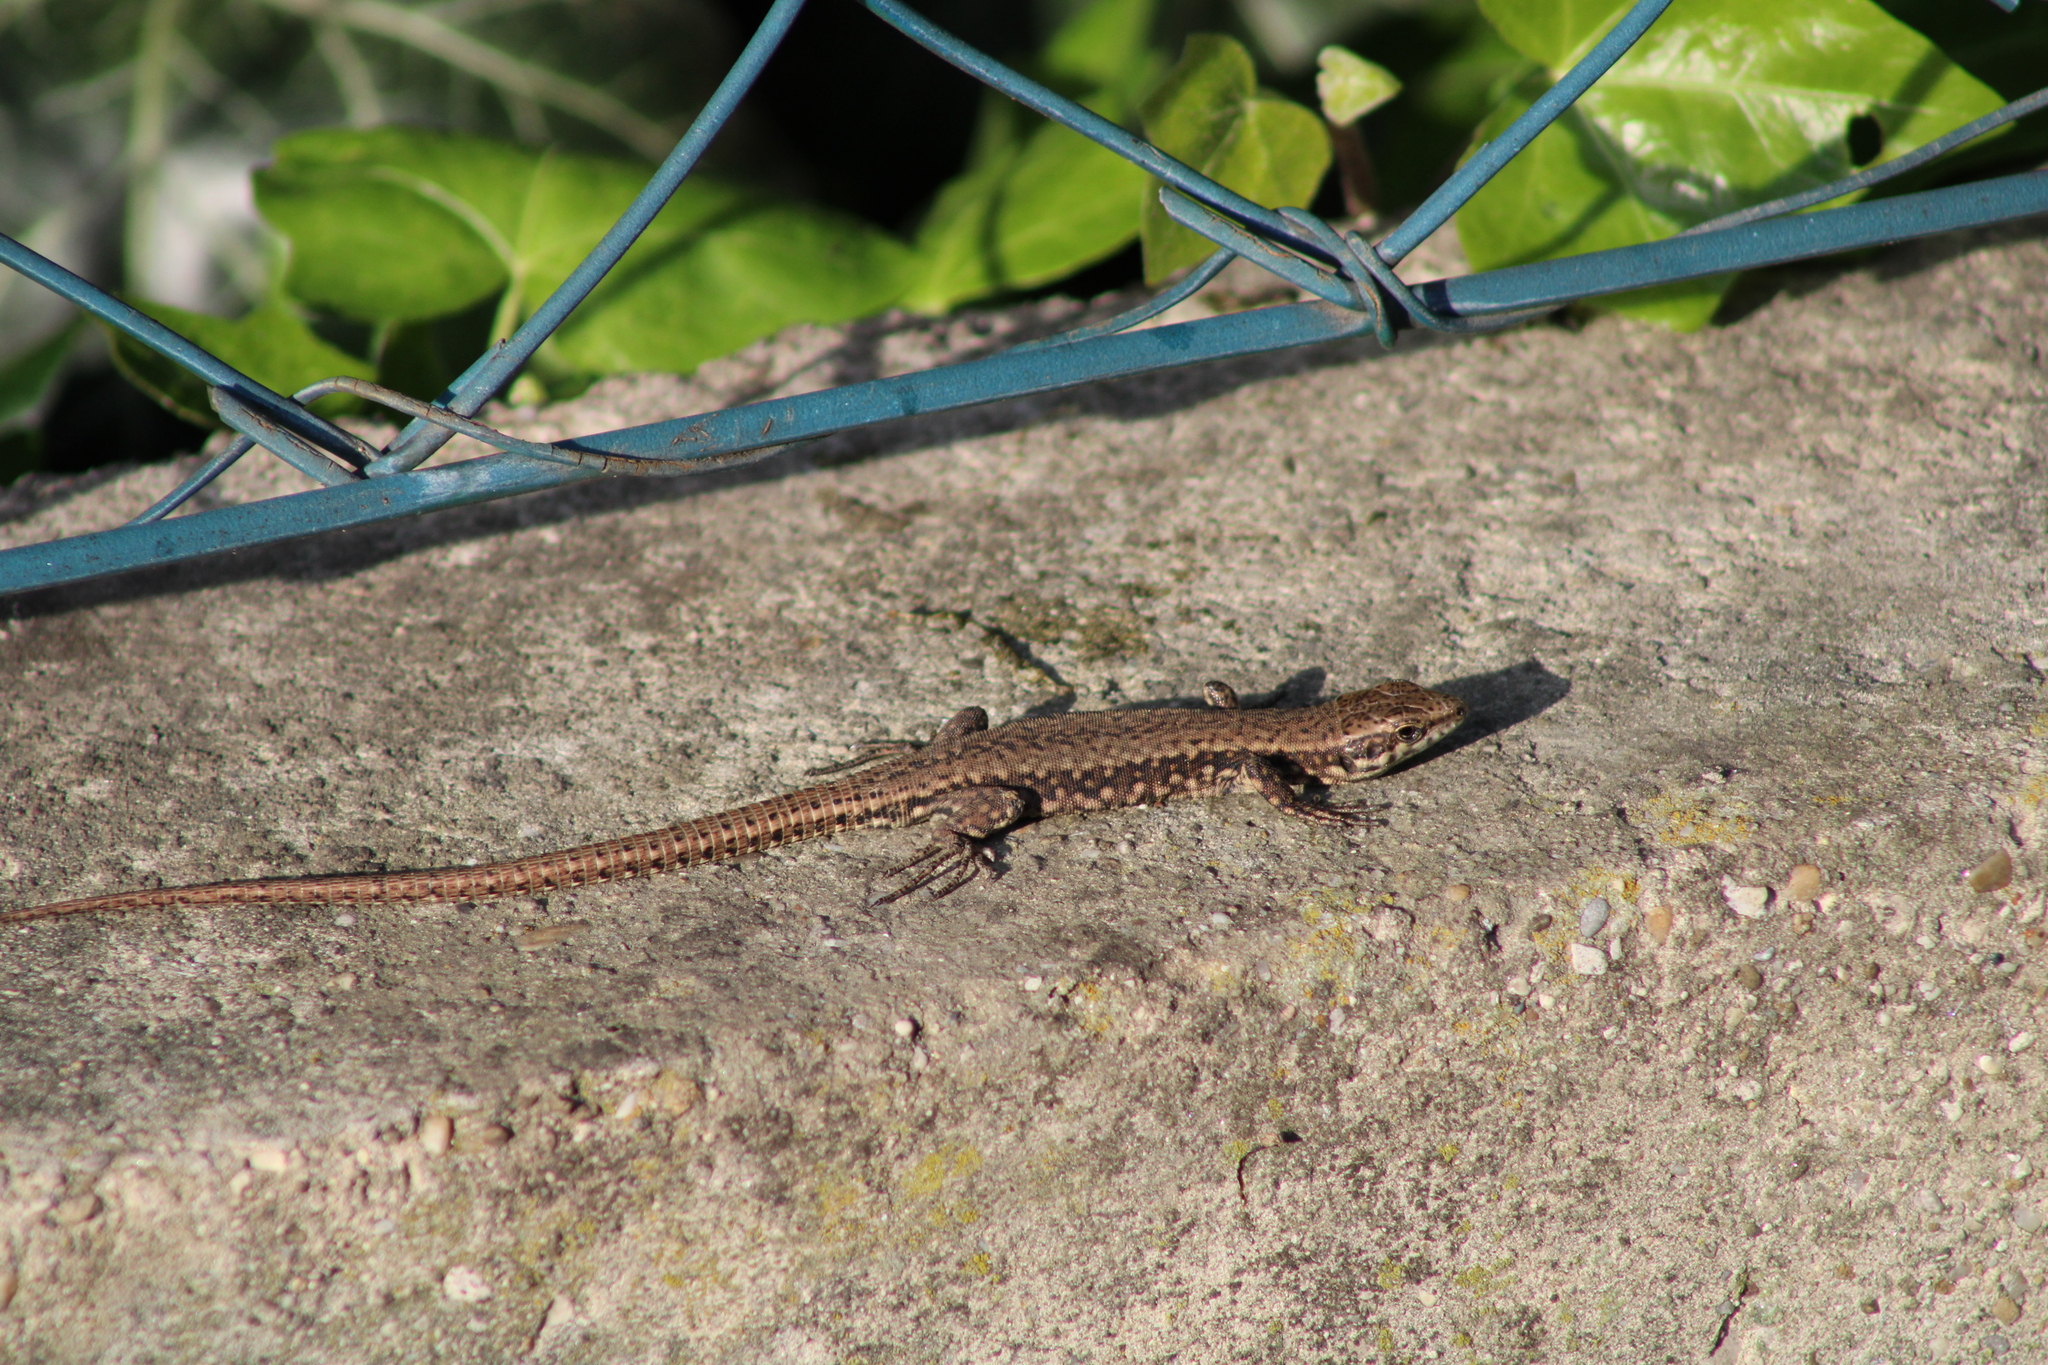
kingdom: Animalia
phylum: Chordata
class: Squamata
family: Lacertidae
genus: Podarcis
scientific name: Podarcis muralis
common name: Common wall lizard
